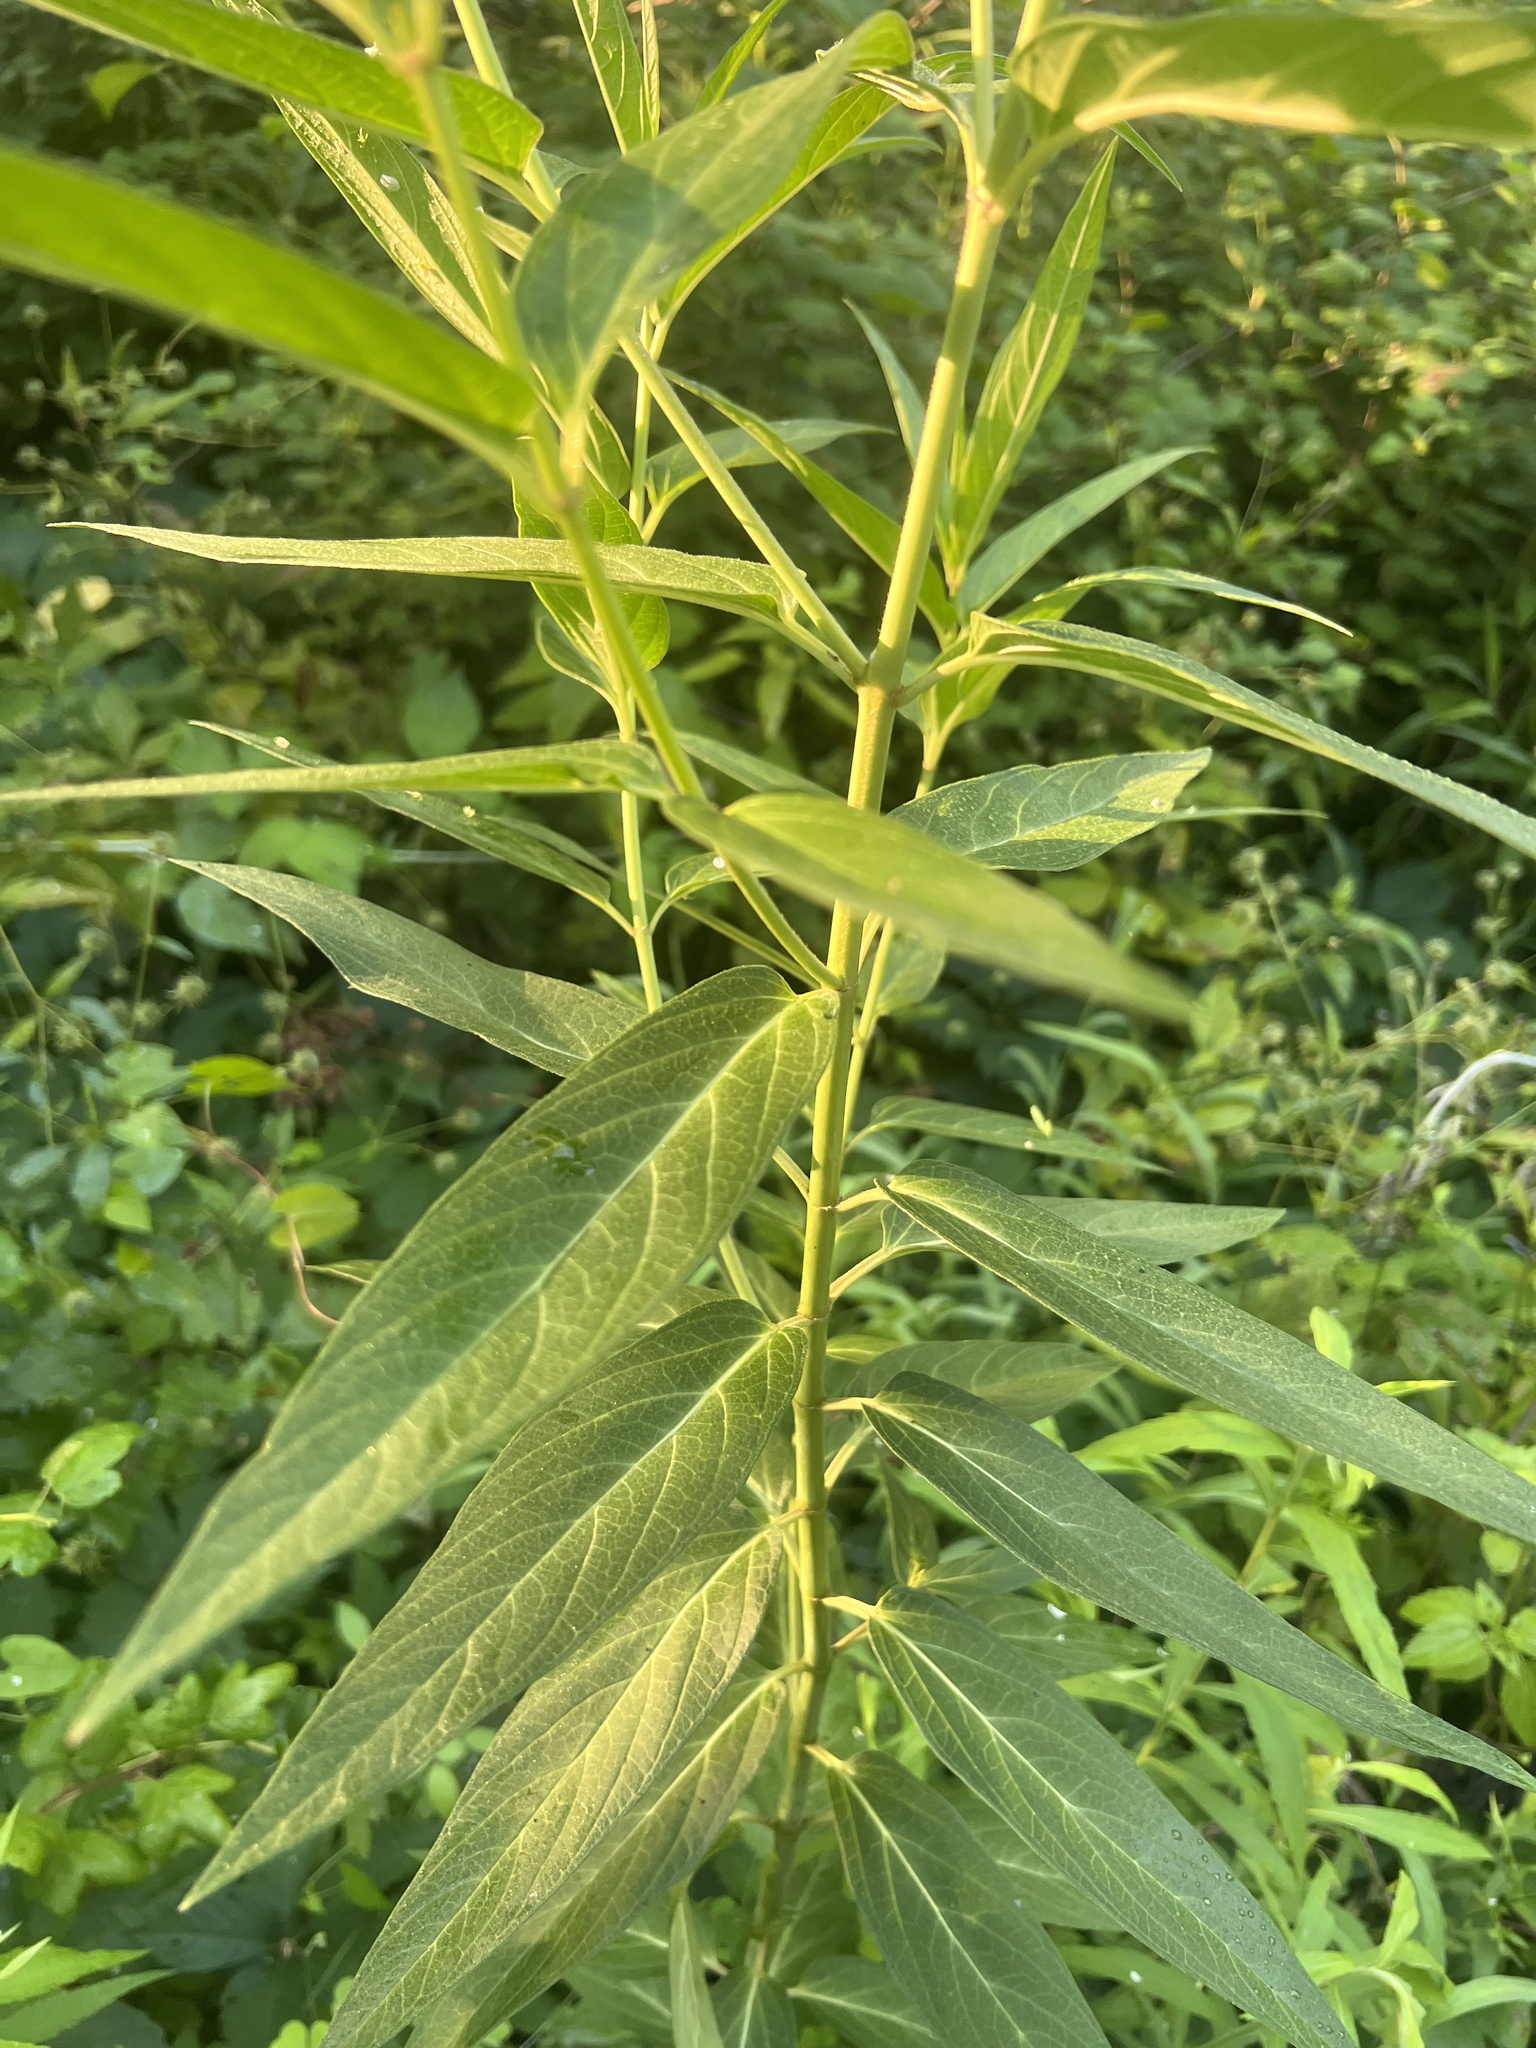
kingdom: Plantae
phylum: Tracheophyta
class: Magnoliopsida
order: Gentianales
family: Apocynaceae
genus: Asclepias
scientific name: Asclepias incarnata
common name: Swamp milkweed
